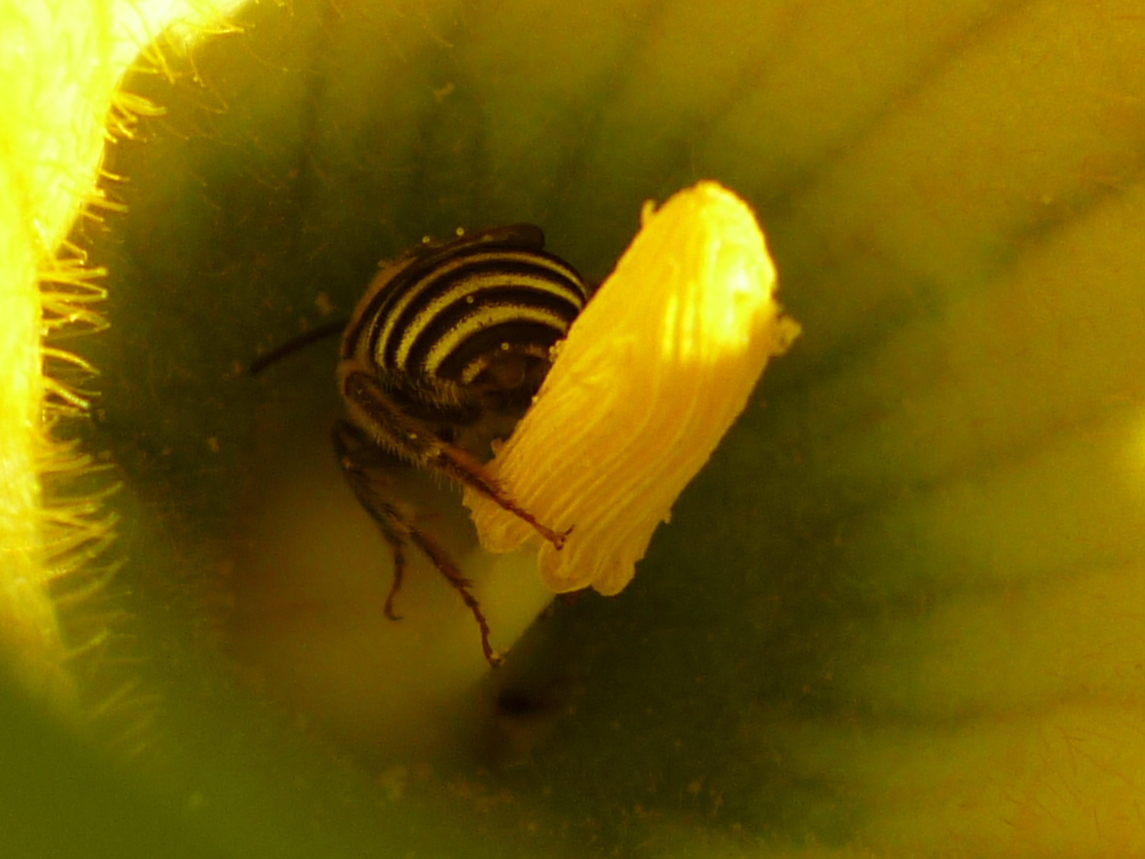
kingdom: Animalia
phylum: Arthropoda
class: Insecta
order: Hymenoptera
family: Apidae
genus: Peponapis
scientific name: Peponapis pruinosa
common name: Pruinose squash bee
